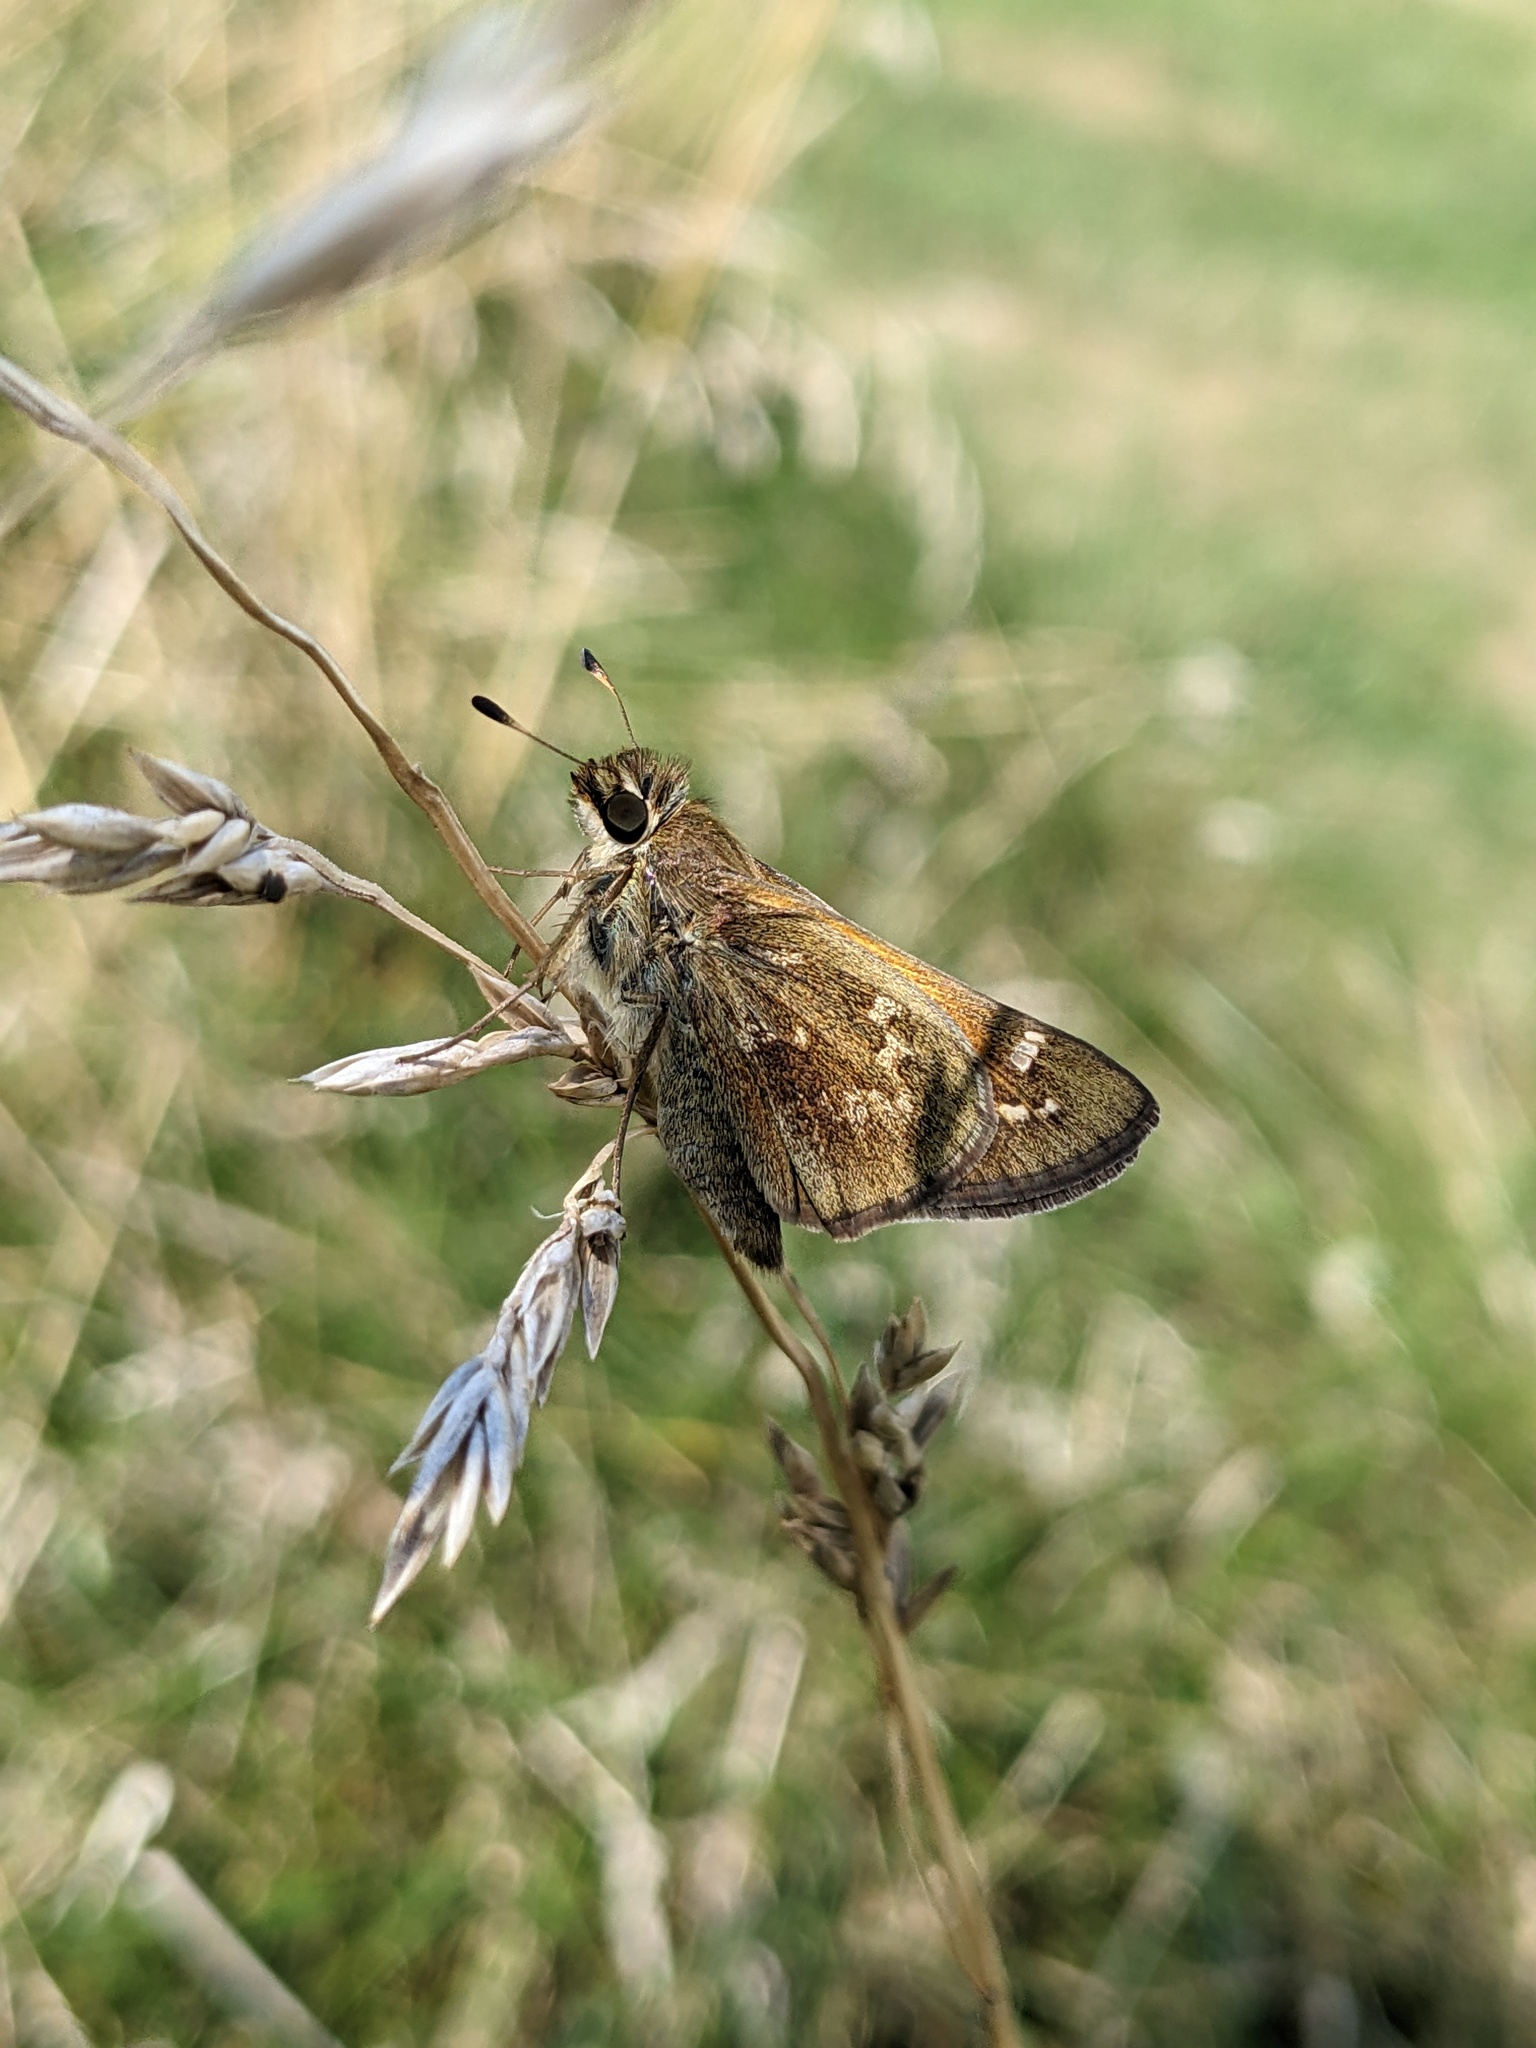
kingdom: Animalia
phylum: Arthropoda
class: Insecta
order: Lepidoptera
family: Hesperiidae
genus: Atalopedes
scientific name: Atalopedes
